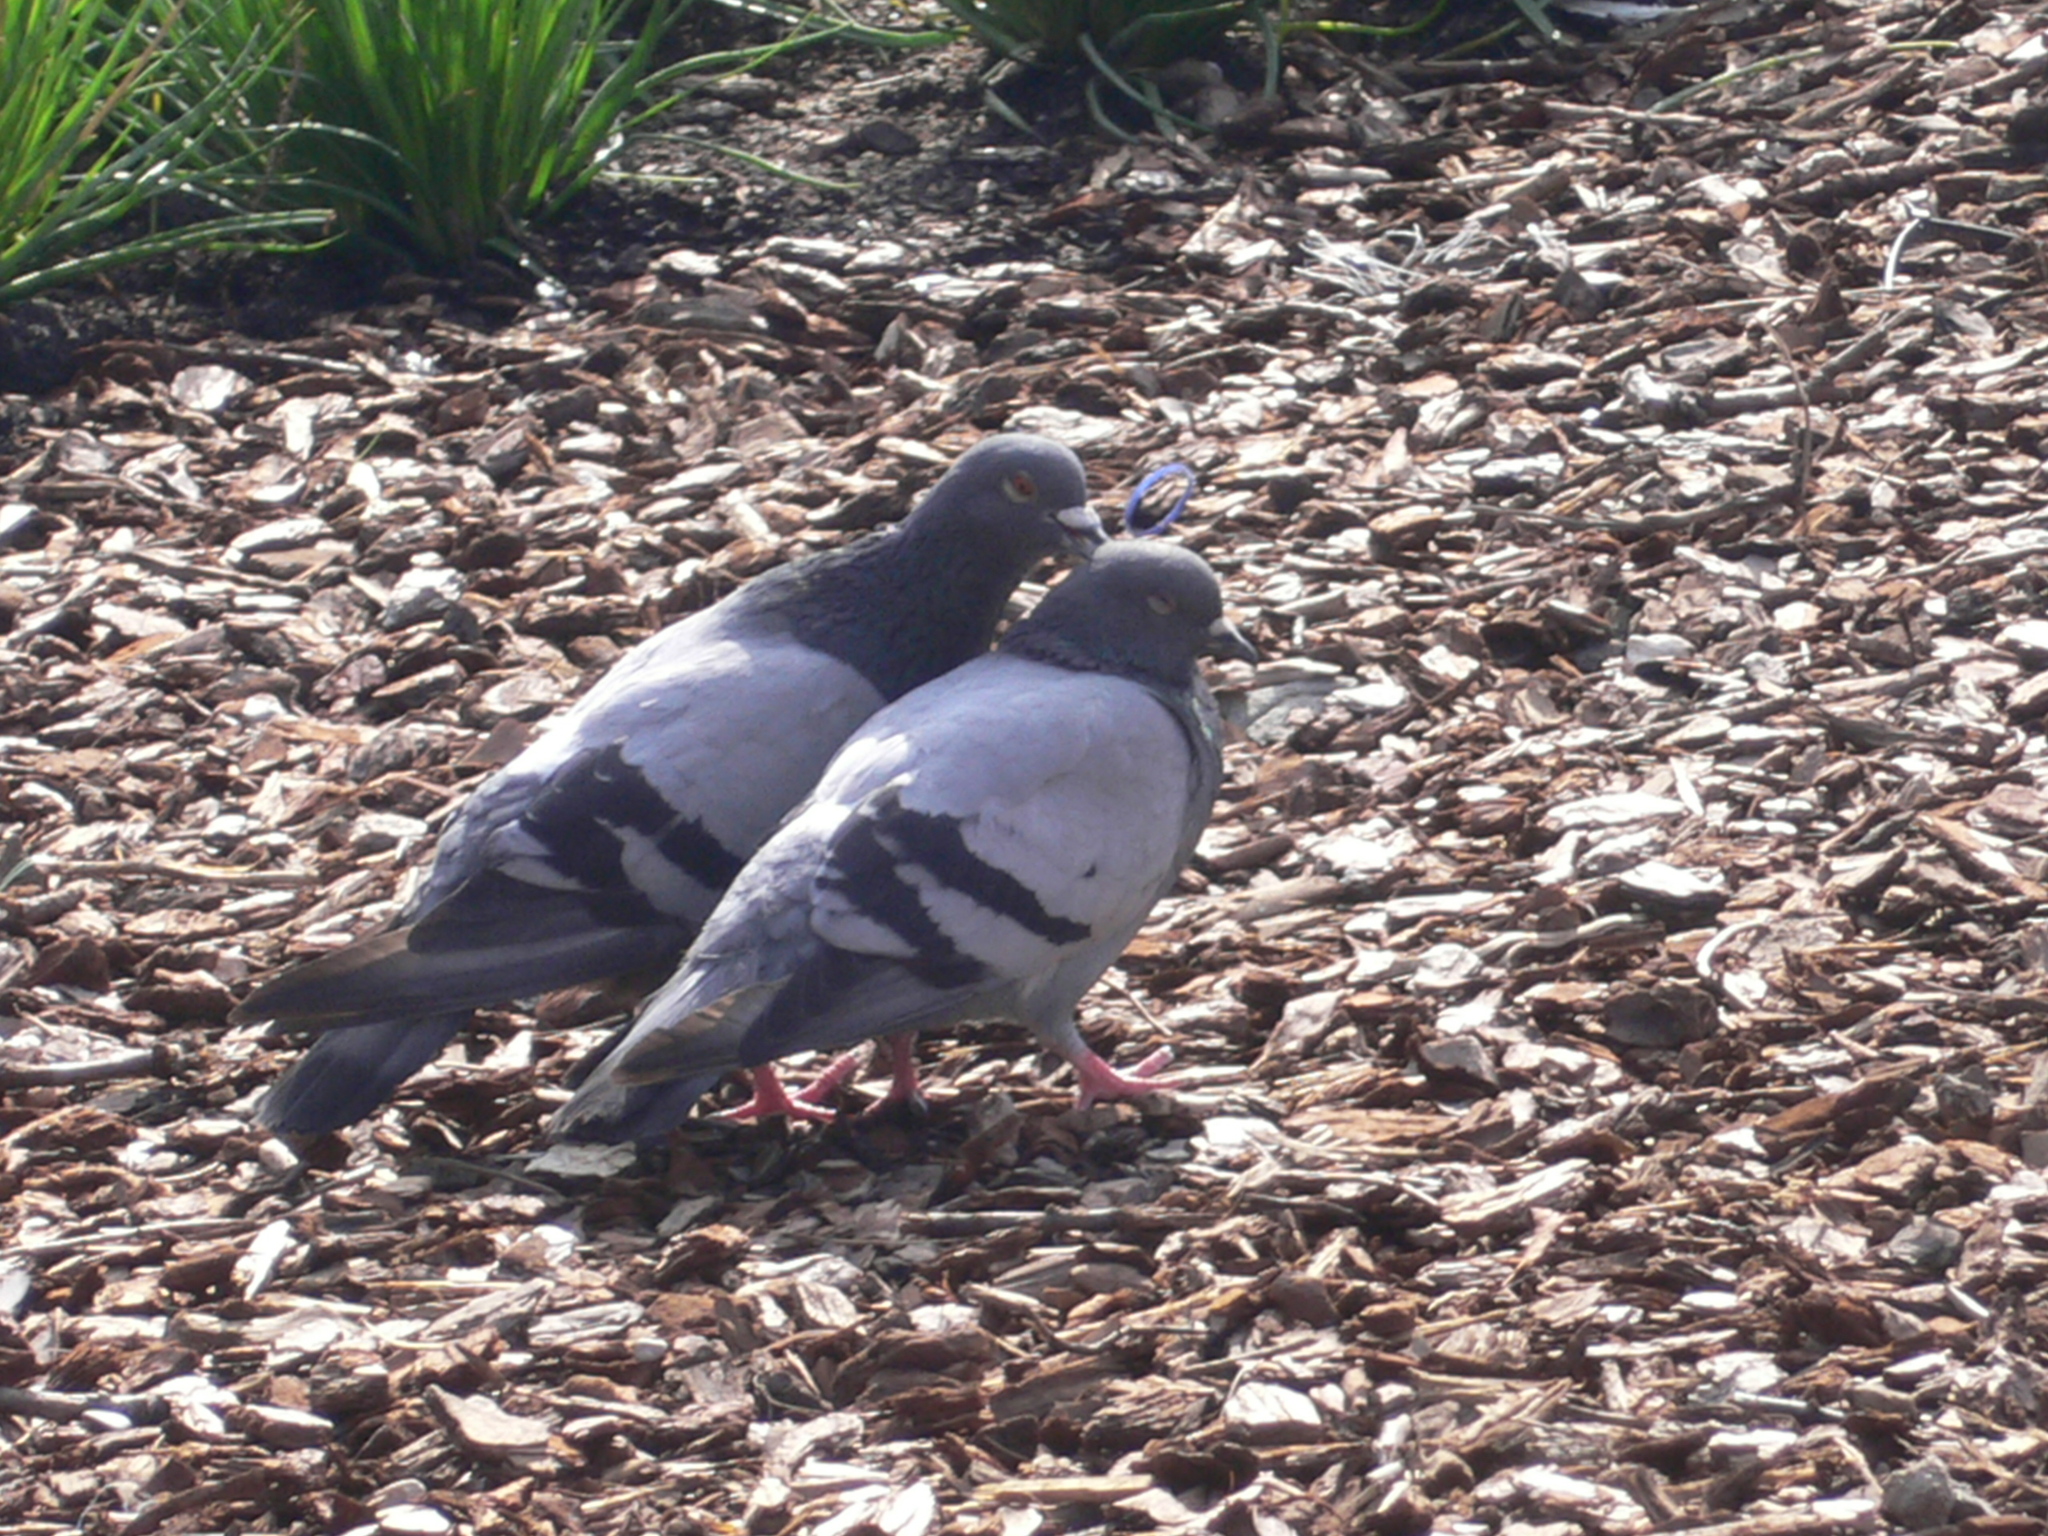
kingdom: Animalia
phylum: Chordata
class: Aves
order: Columbiformes
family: Columbidae
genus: Columba
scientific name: Columba livia
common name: Rock pigeon
